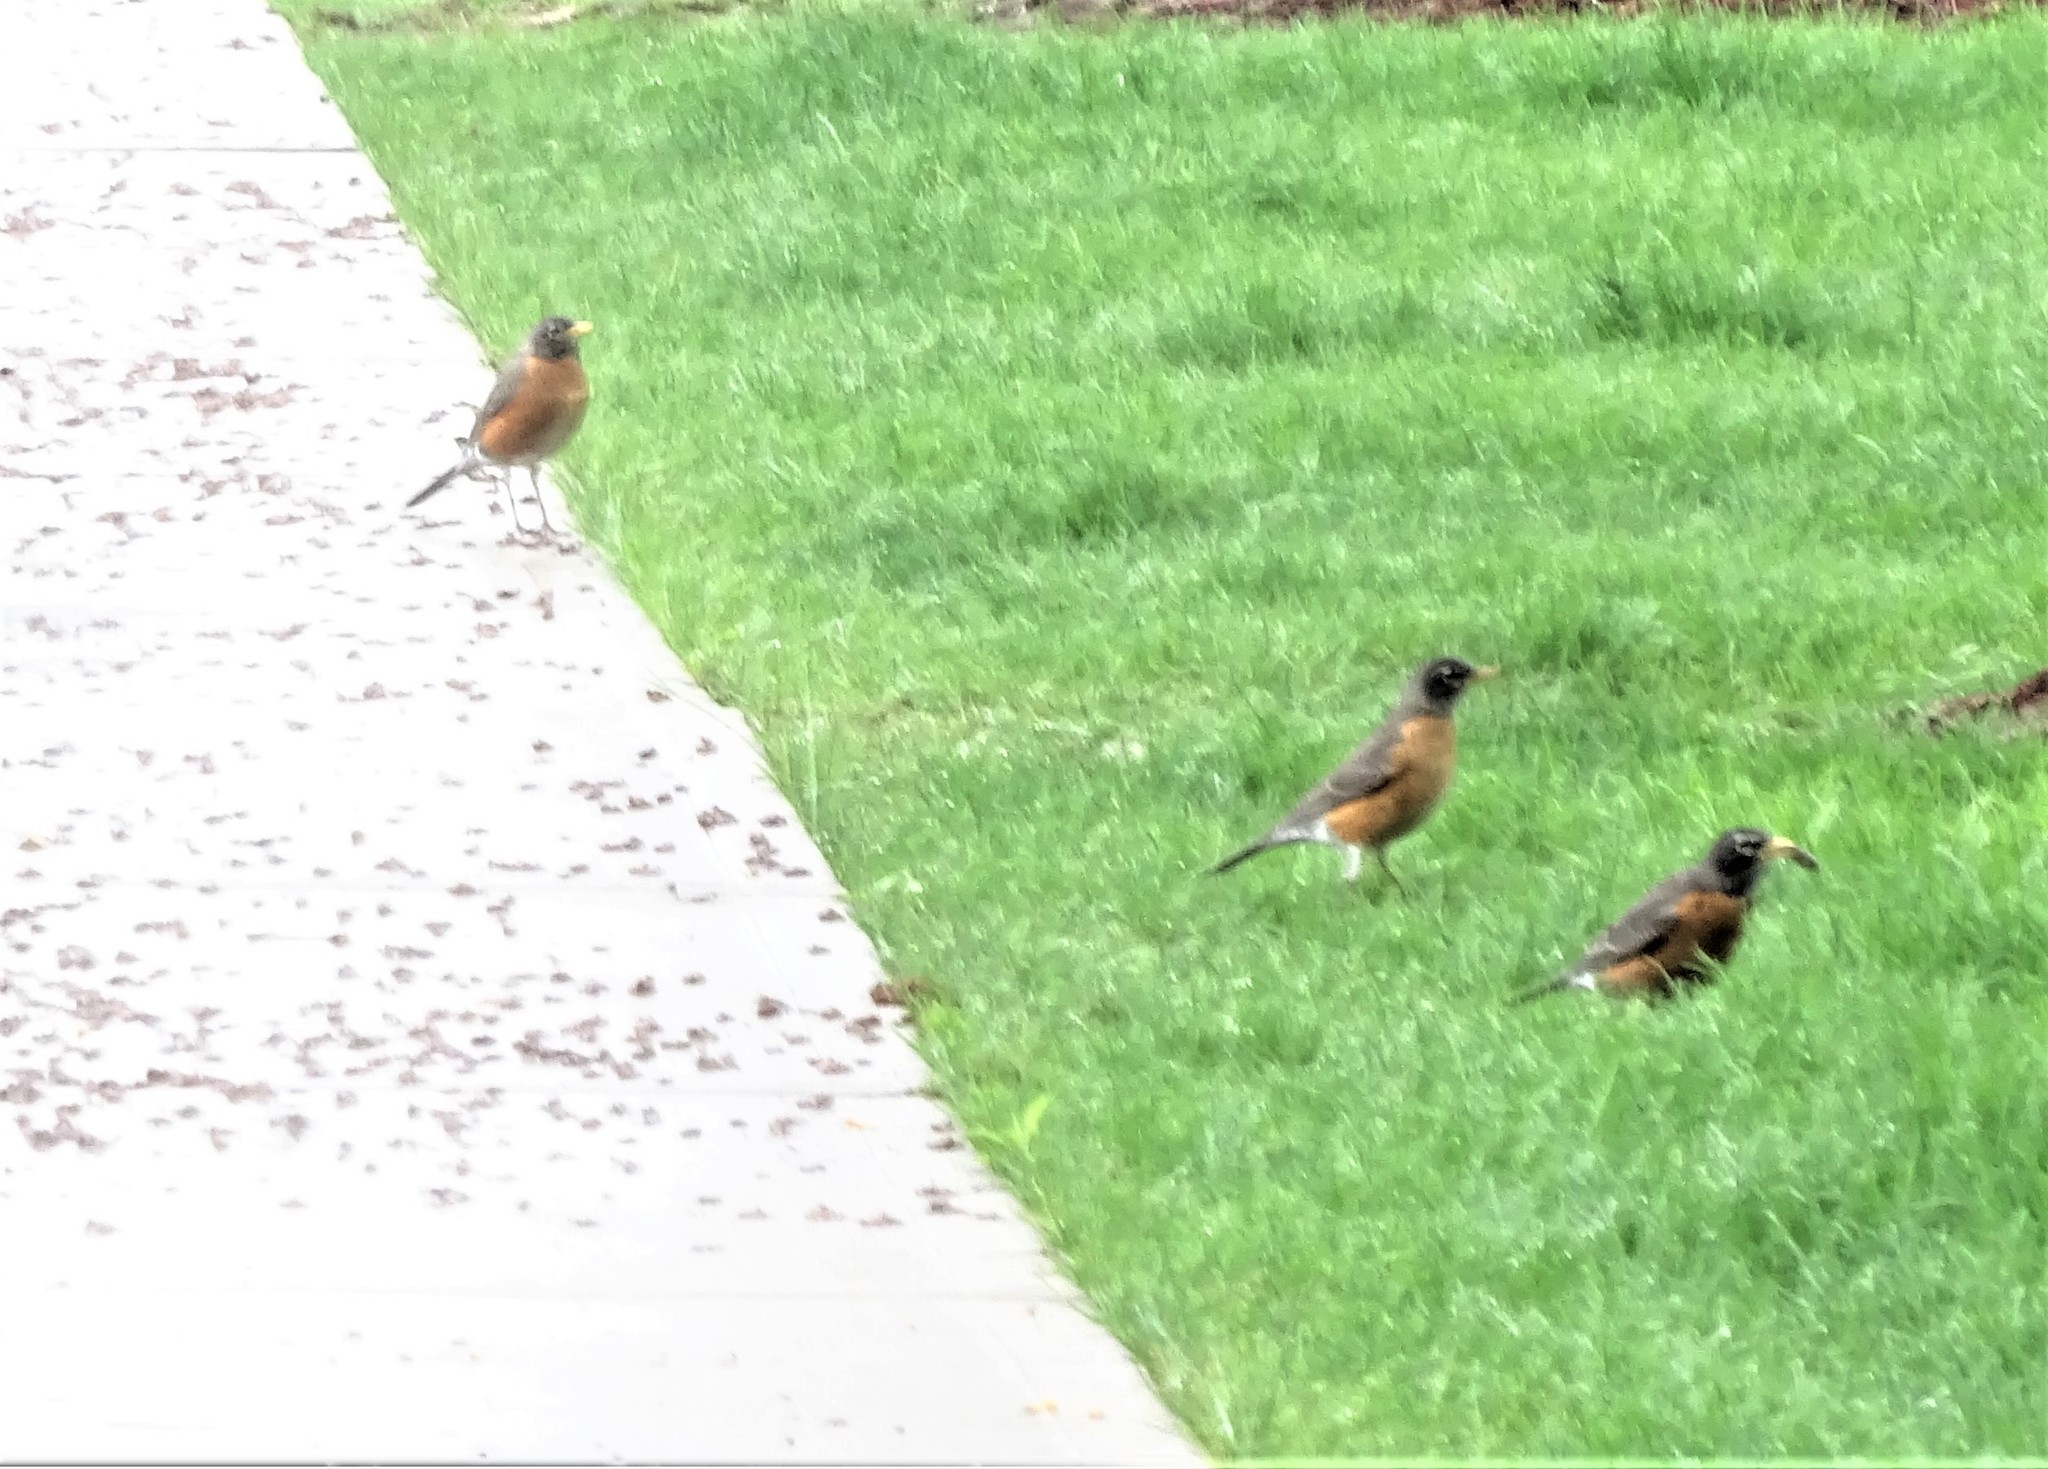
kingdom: Animalia
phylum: Chordata
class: Aves
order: Passeriformes
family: Turdidae
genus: Turdus
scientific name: Turdus migratorius
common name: American robin
